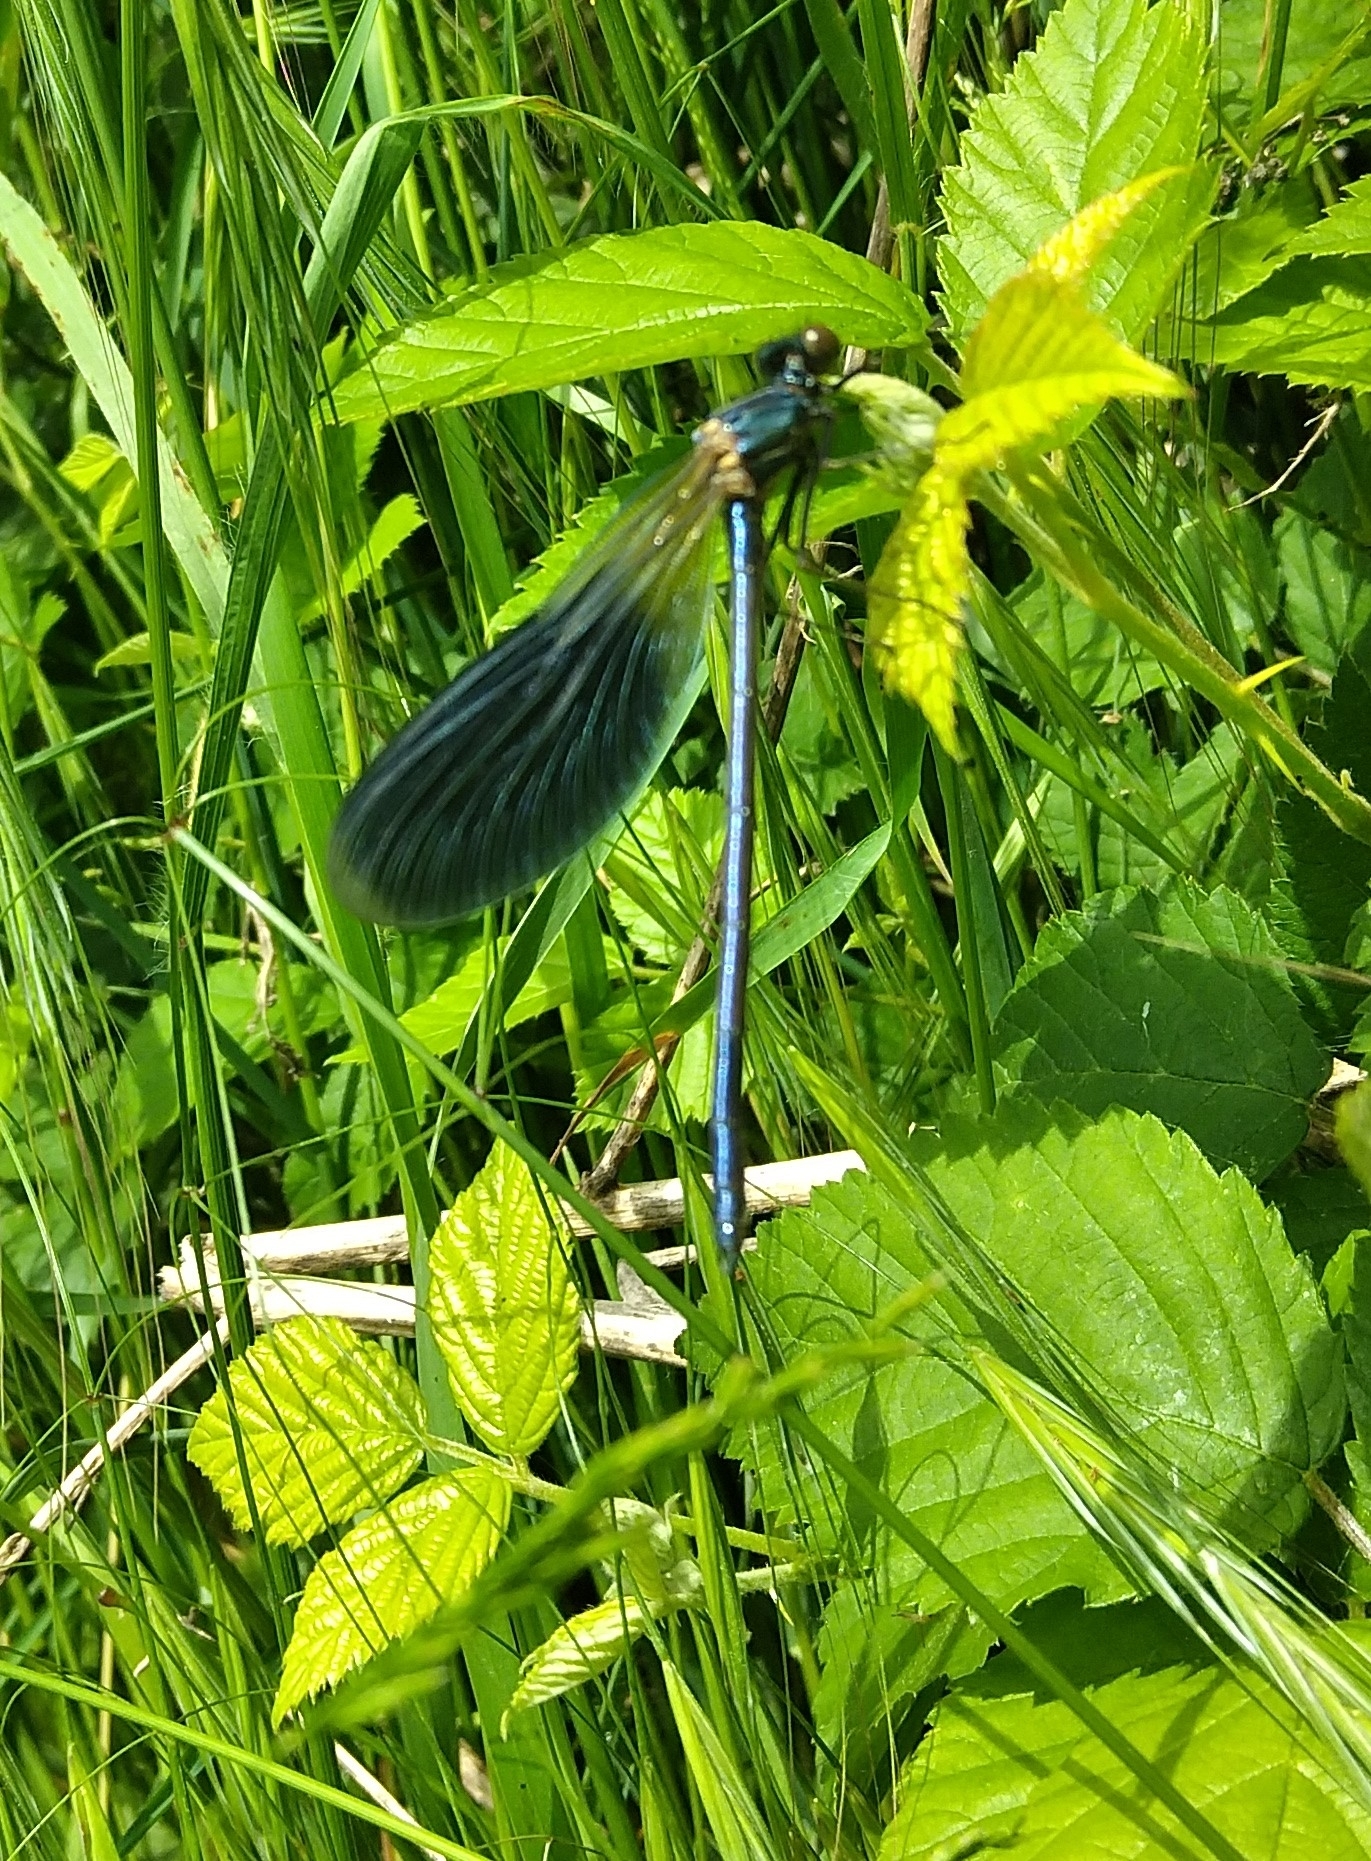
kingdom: Animalia
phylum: Arthropoda
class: Insecta
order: Odonata
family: Calopterygidae
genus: Calopteryx
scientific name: Calopteryx splendens
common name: Banded demoiselle
